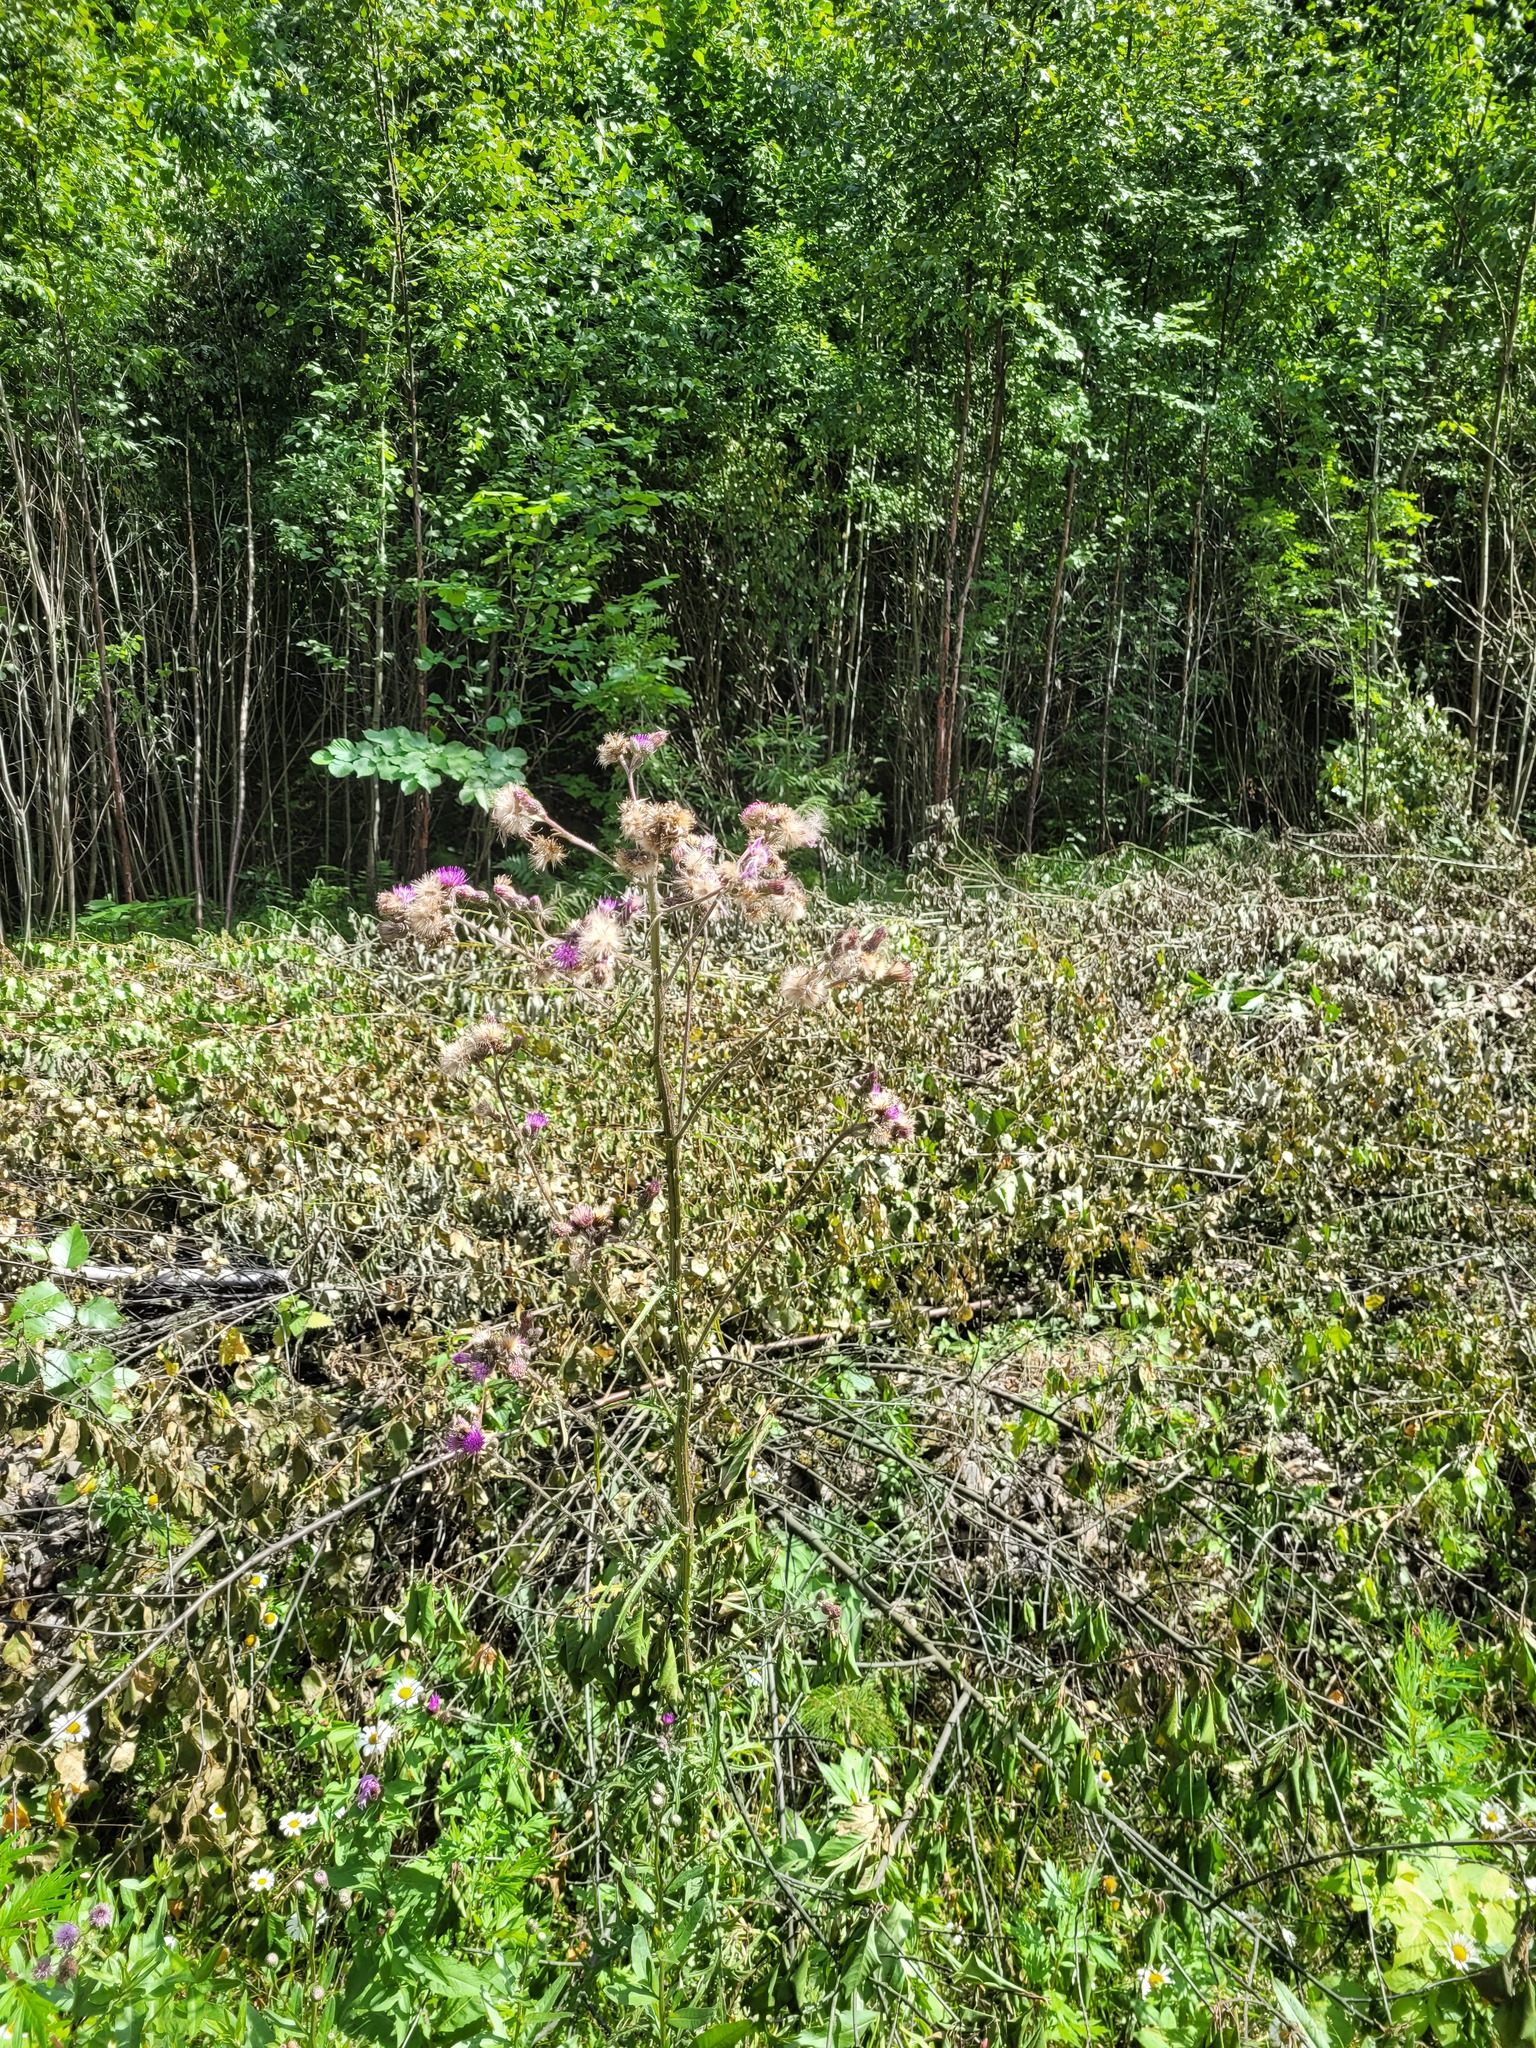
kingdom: Plantae
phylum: Tracheophyta
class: Magnoliopsida
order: Asterales
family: Asteraceae
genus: Cirsium
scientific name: Cirsium palustre
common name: Marsh thistle
